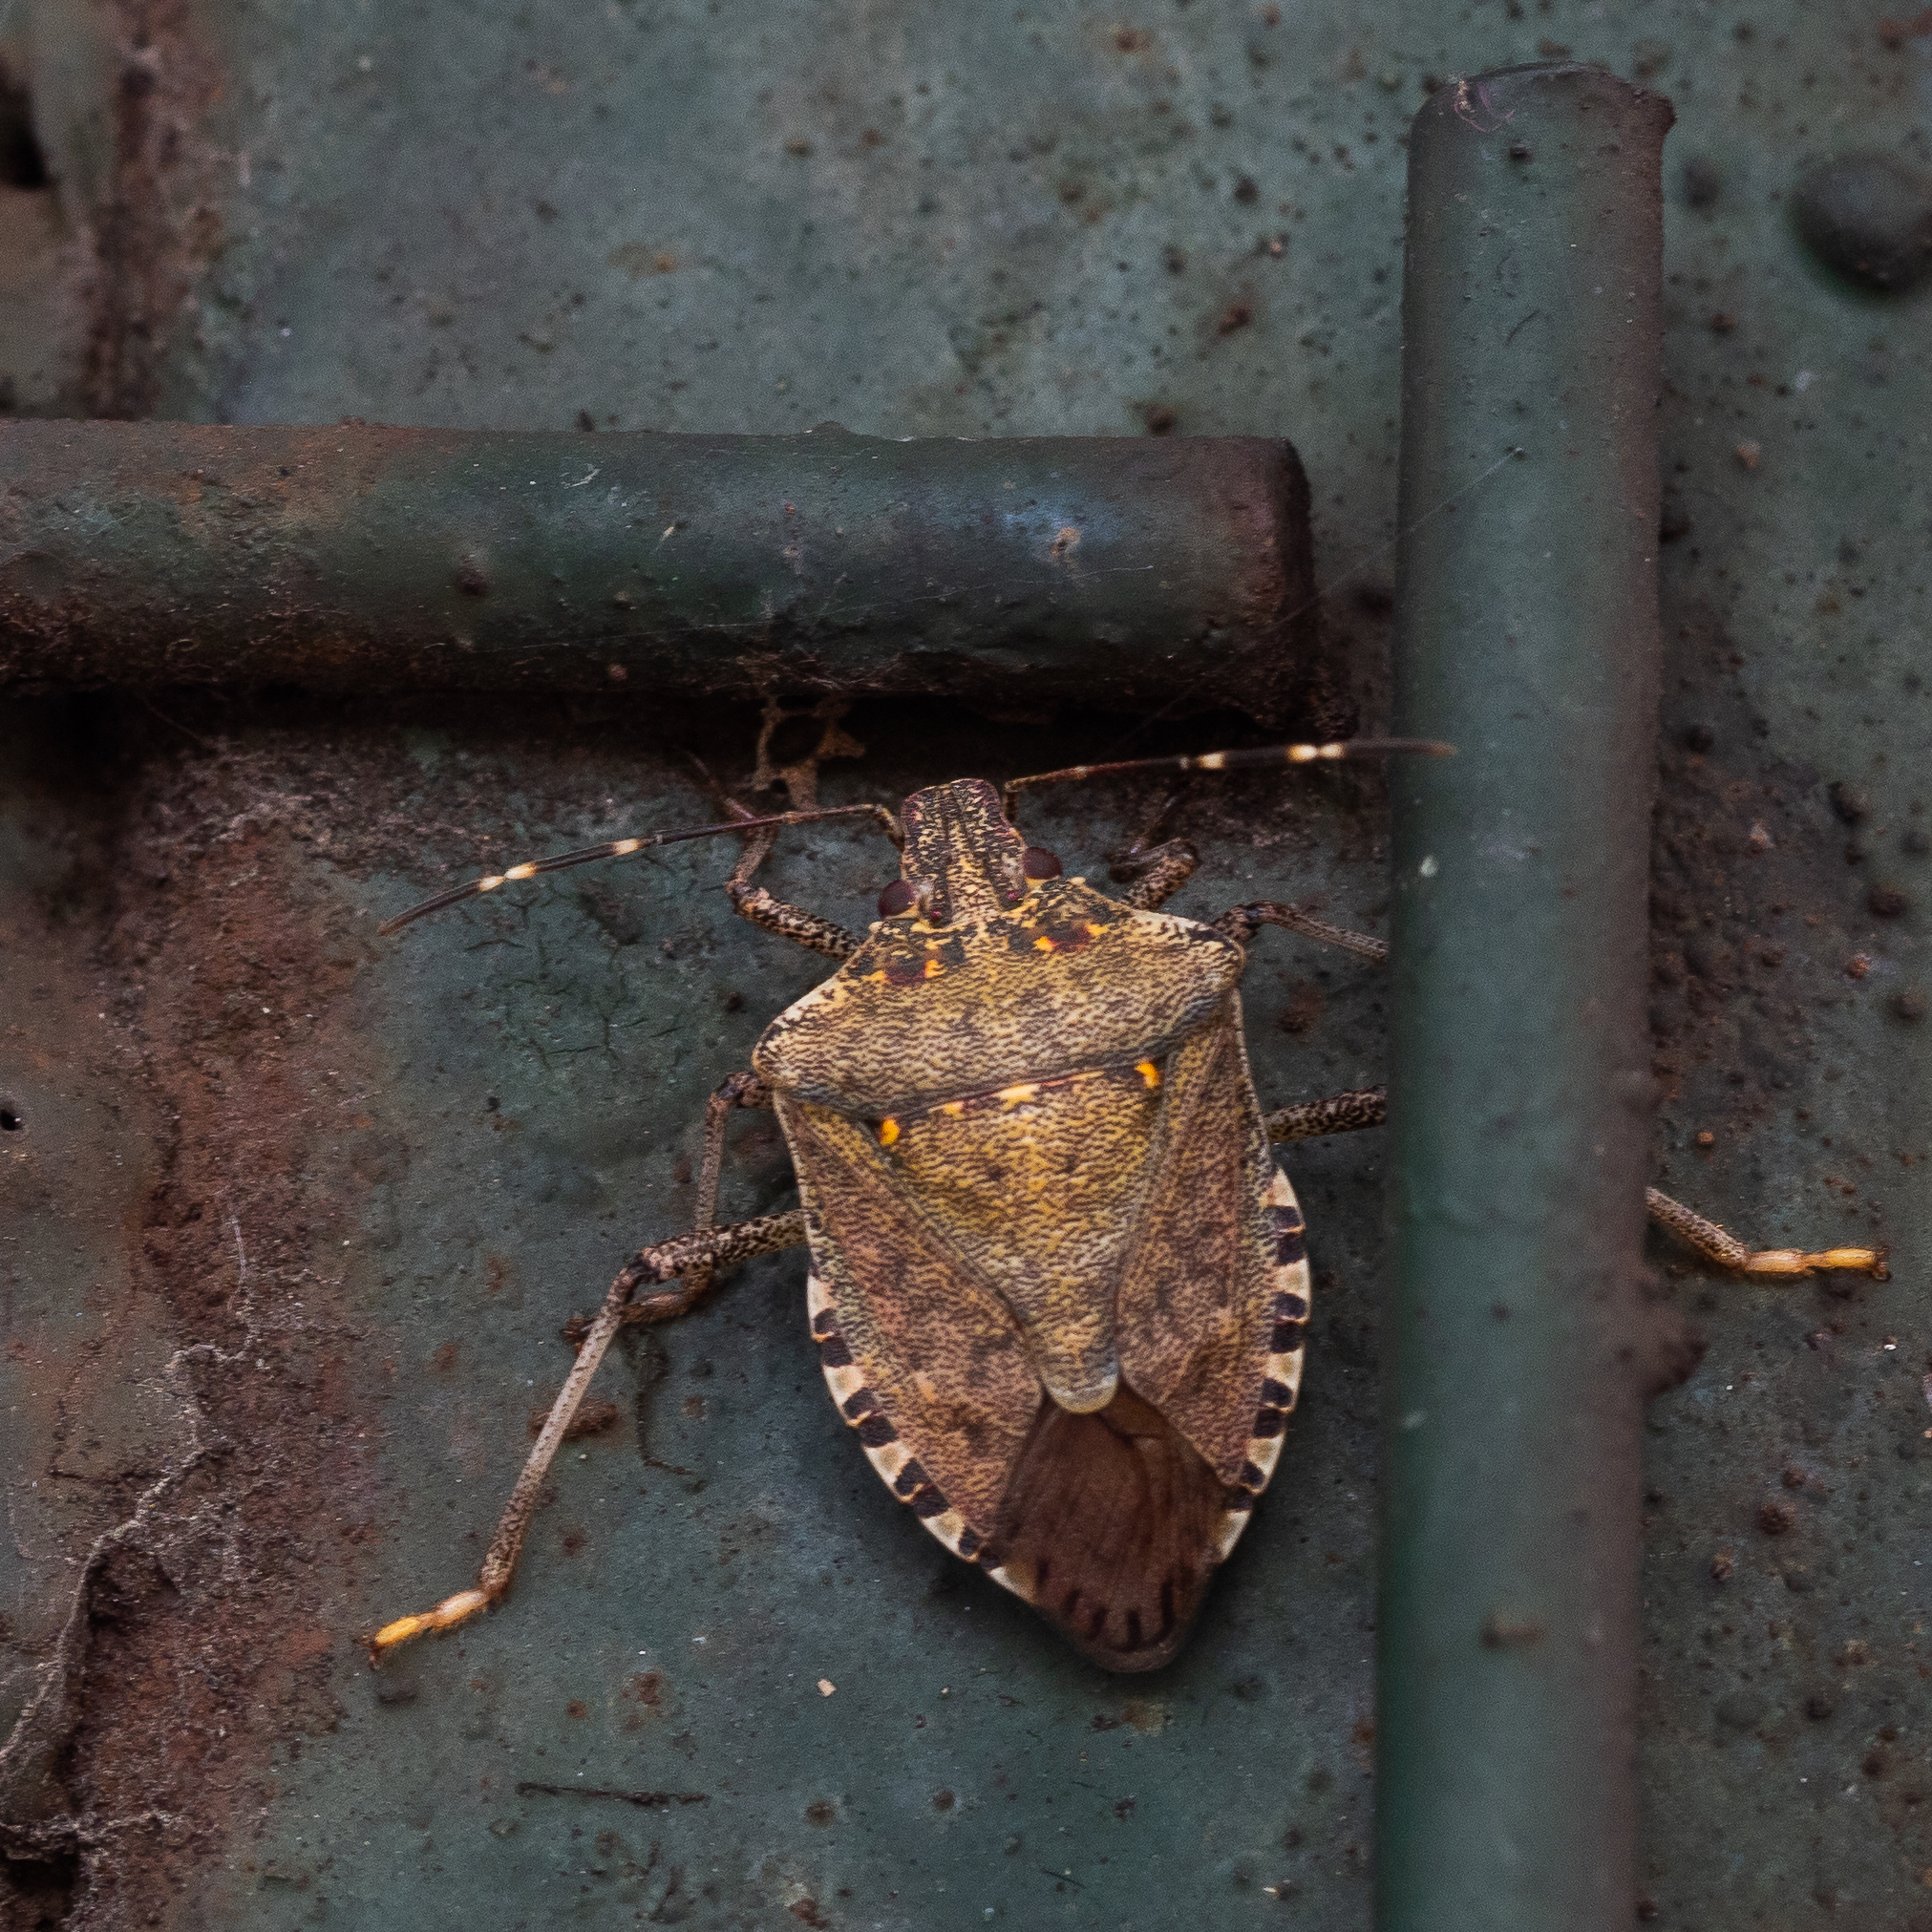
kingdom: Animalia
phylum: Arthropoda
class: Insecta
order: Hemiptera
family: Pentatomidae
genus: Halyomorpha
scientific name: Halyomorpha halys
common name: Brown marmorated stink bug
